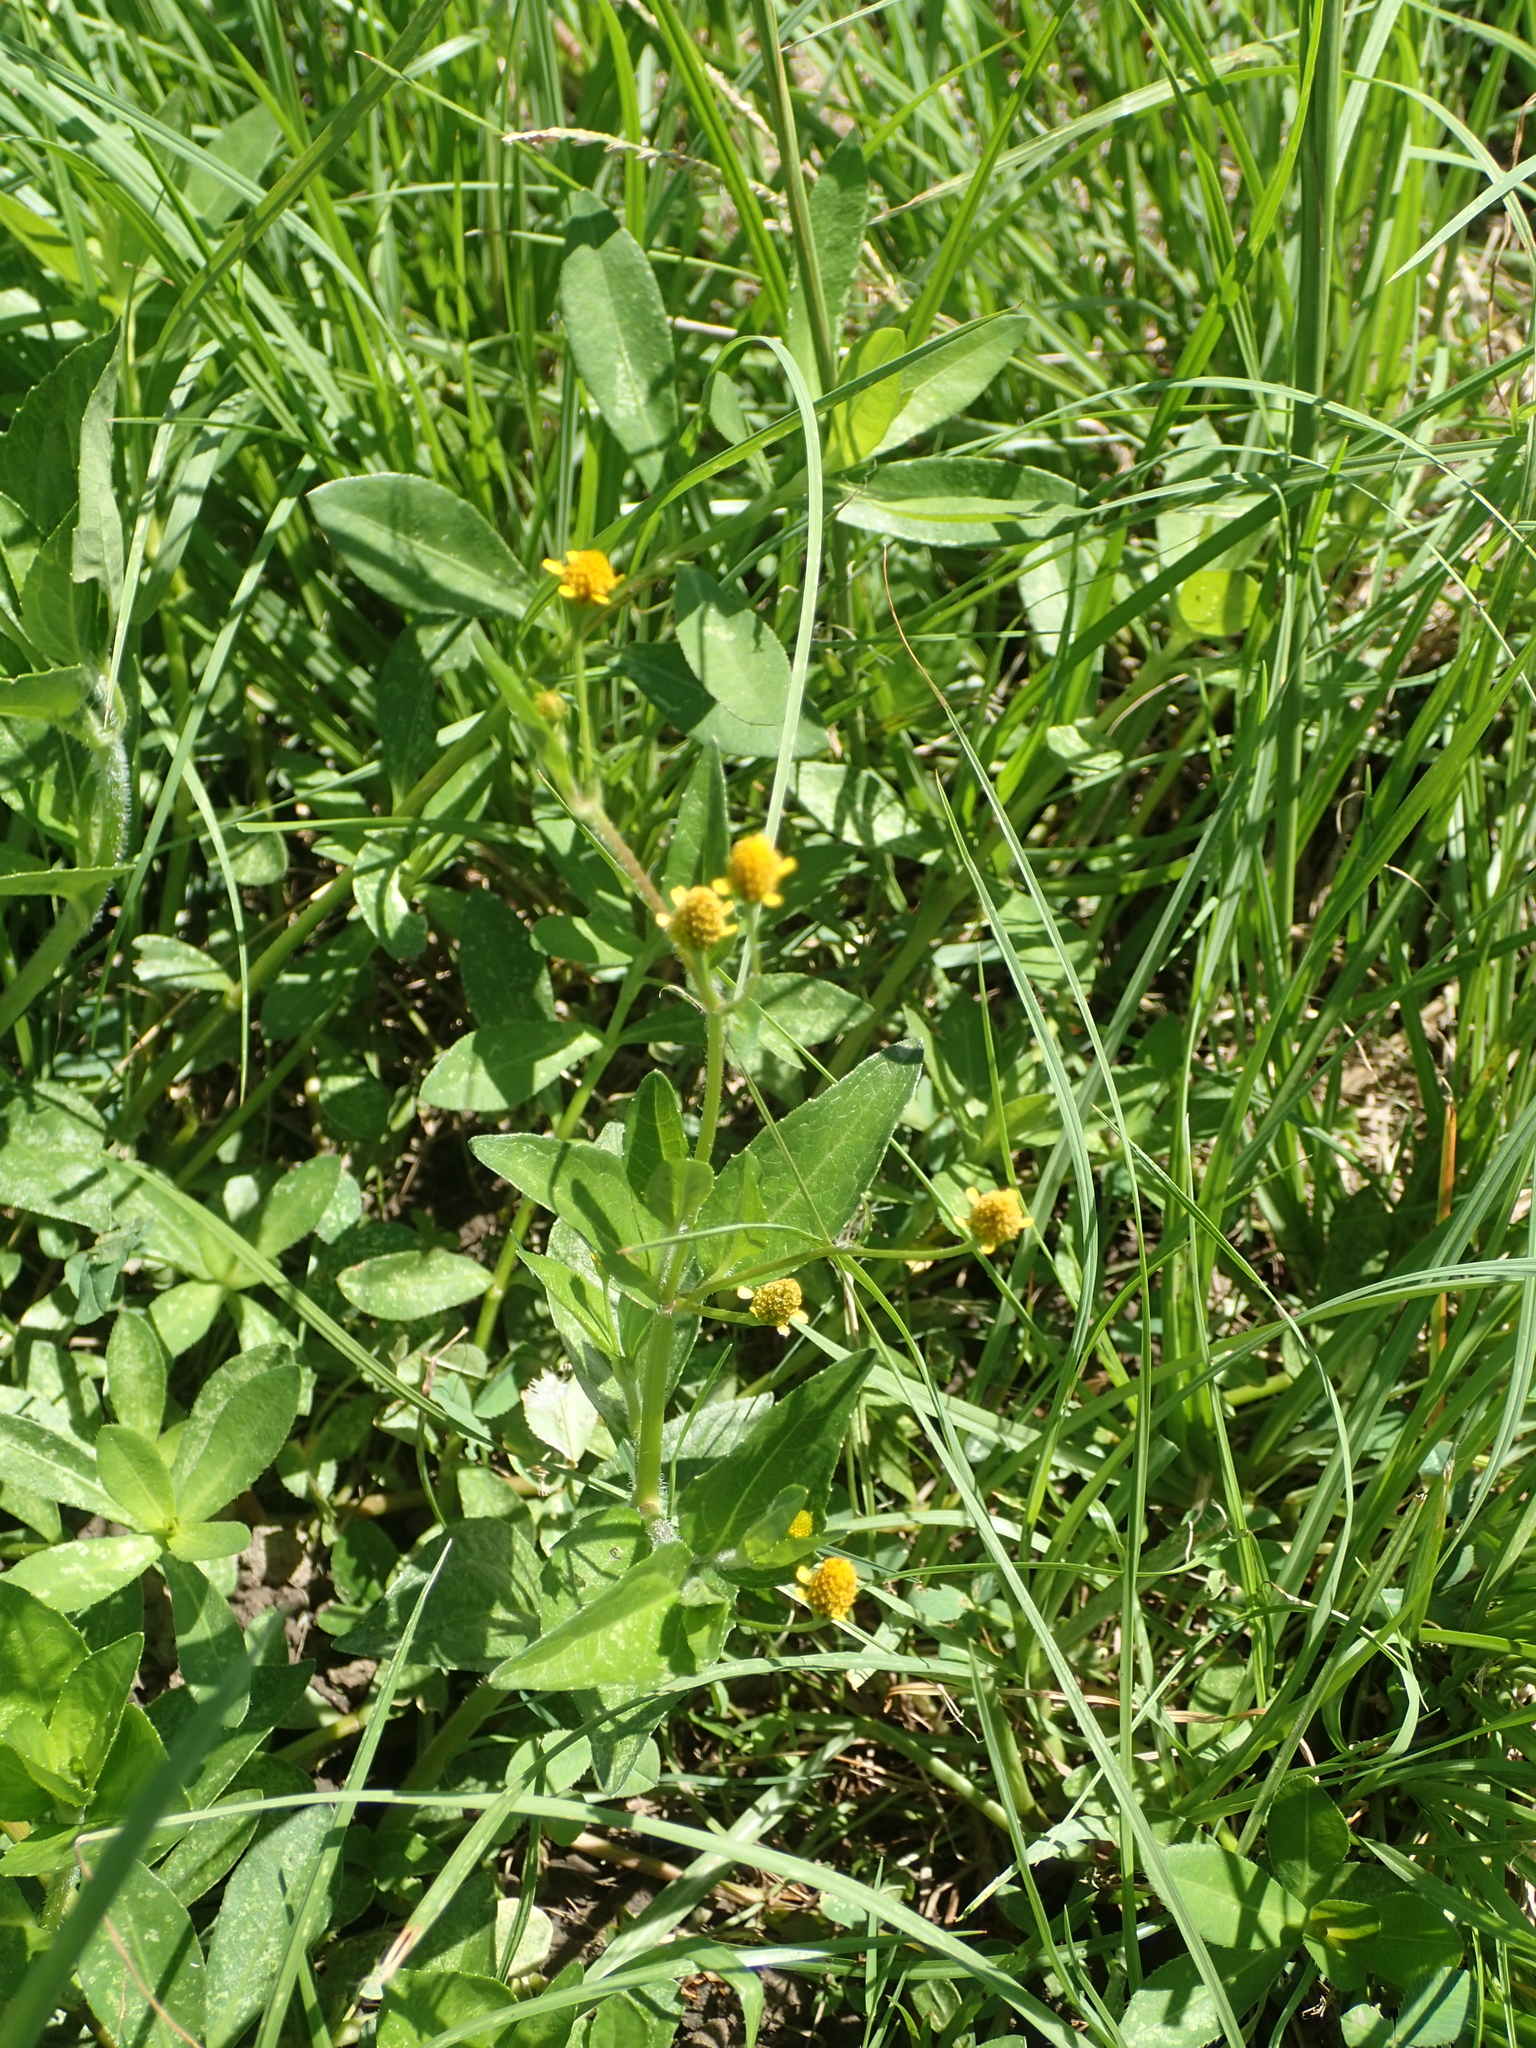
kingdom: Plantae
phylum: Tracheophyta
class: Magnoliopsida
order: Asterales
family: Asteraceae
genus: Acmella
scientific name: Acmella uliginosa
